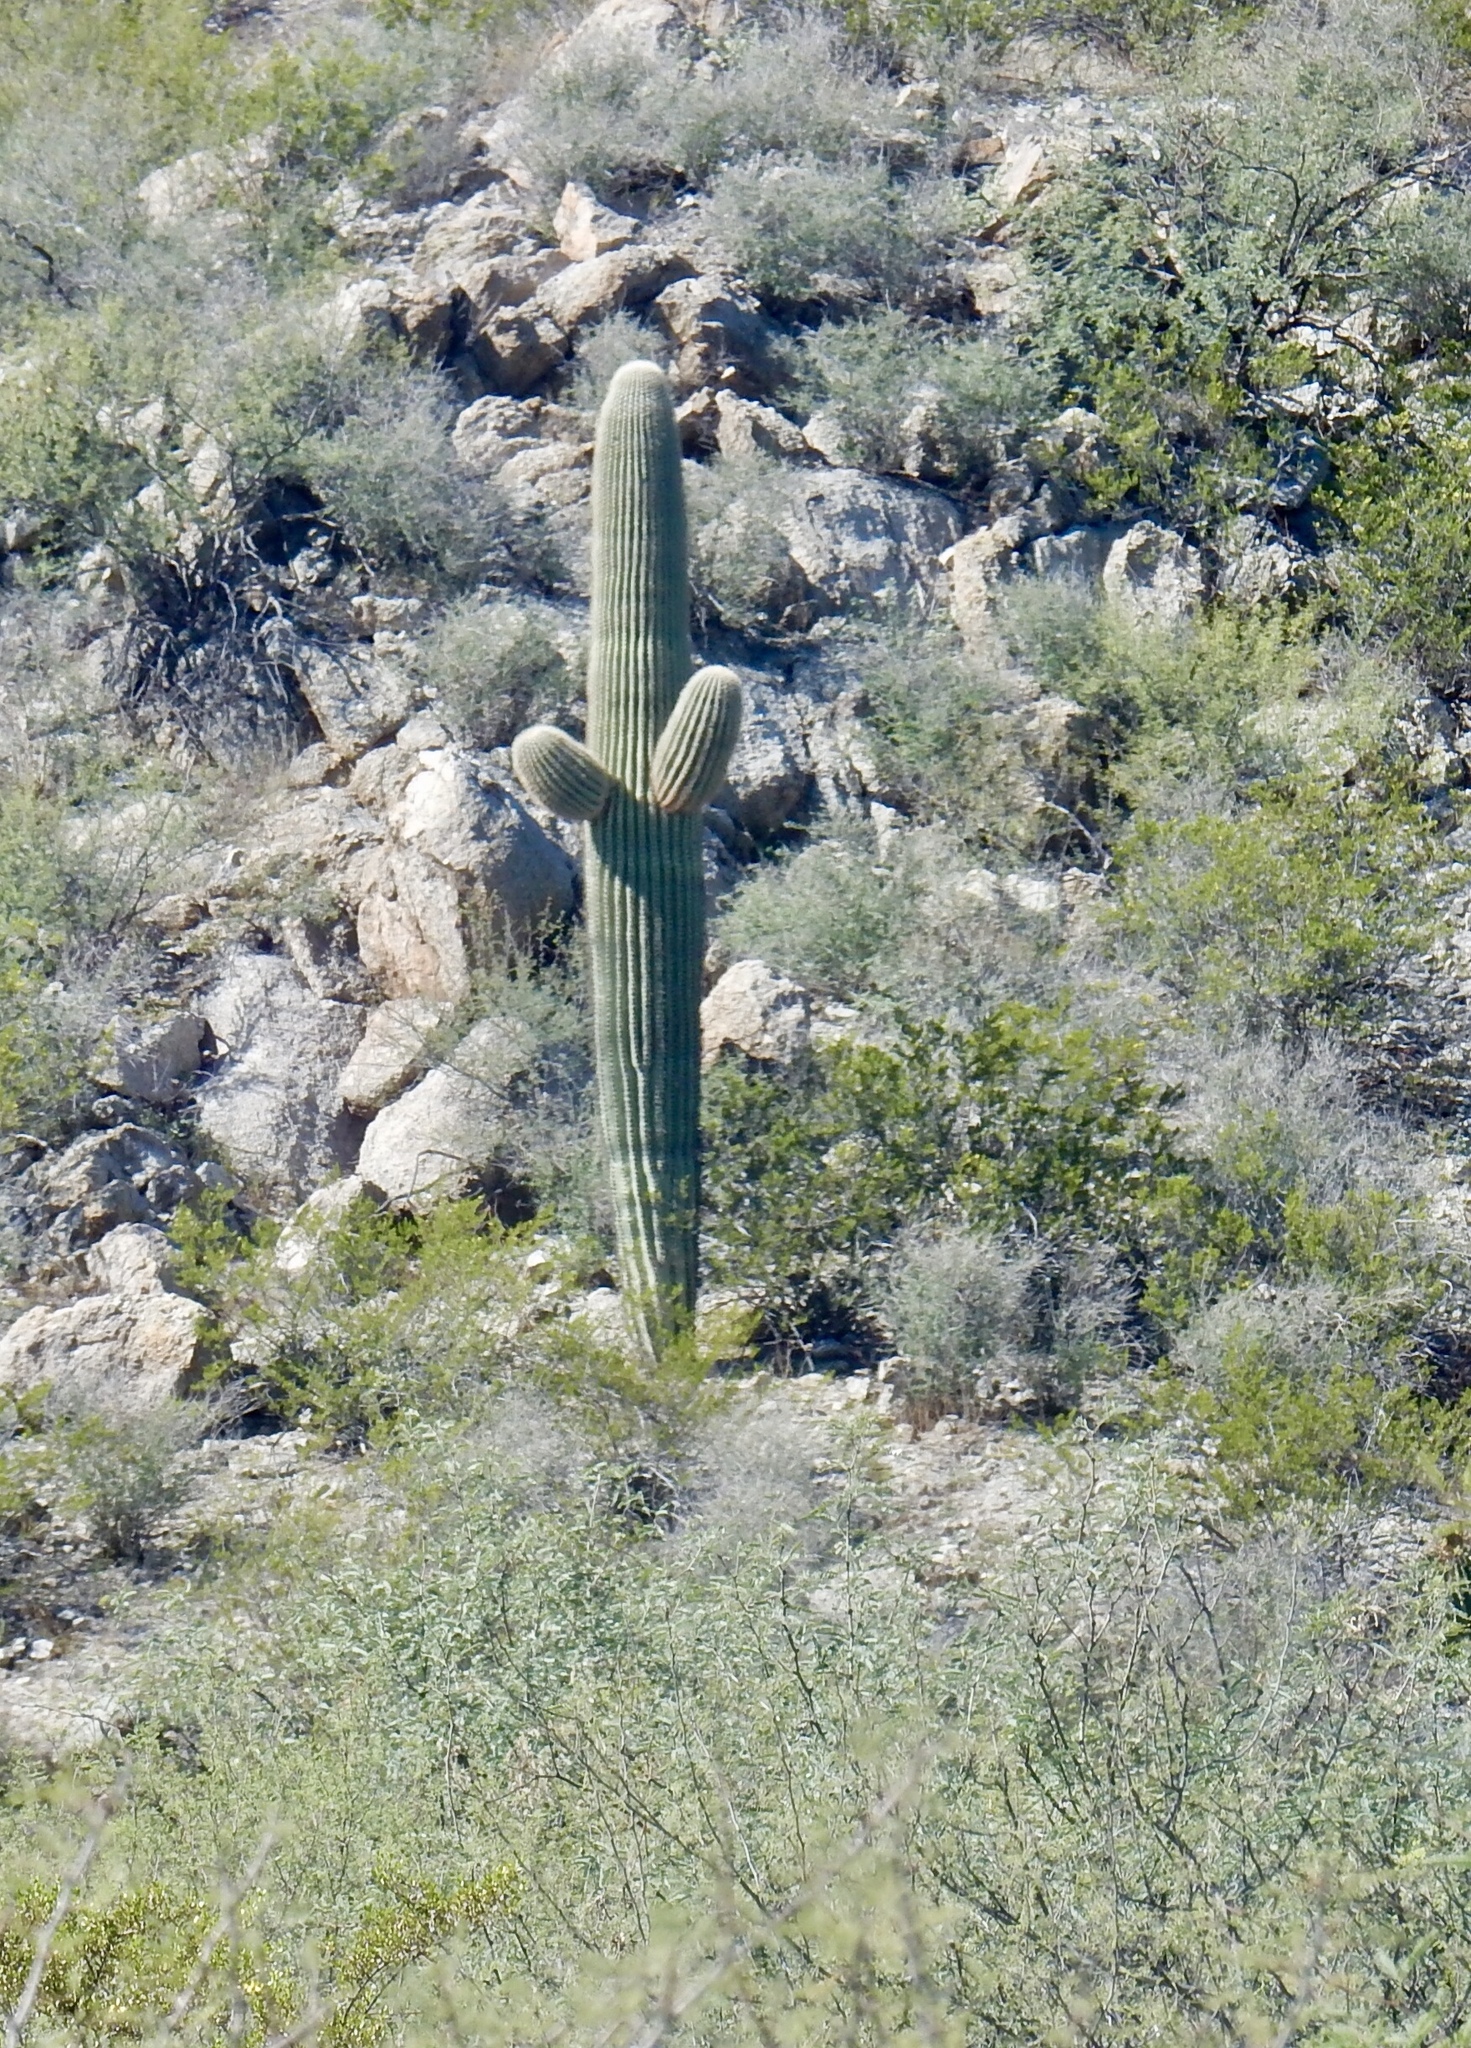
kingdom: Plantae
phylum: Tracheophyta
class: Magnoliopsida
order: Caryophyllales
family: Cactaceae
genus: Carnegiea
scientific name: Carnegiea gigantea
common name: Saguaro
